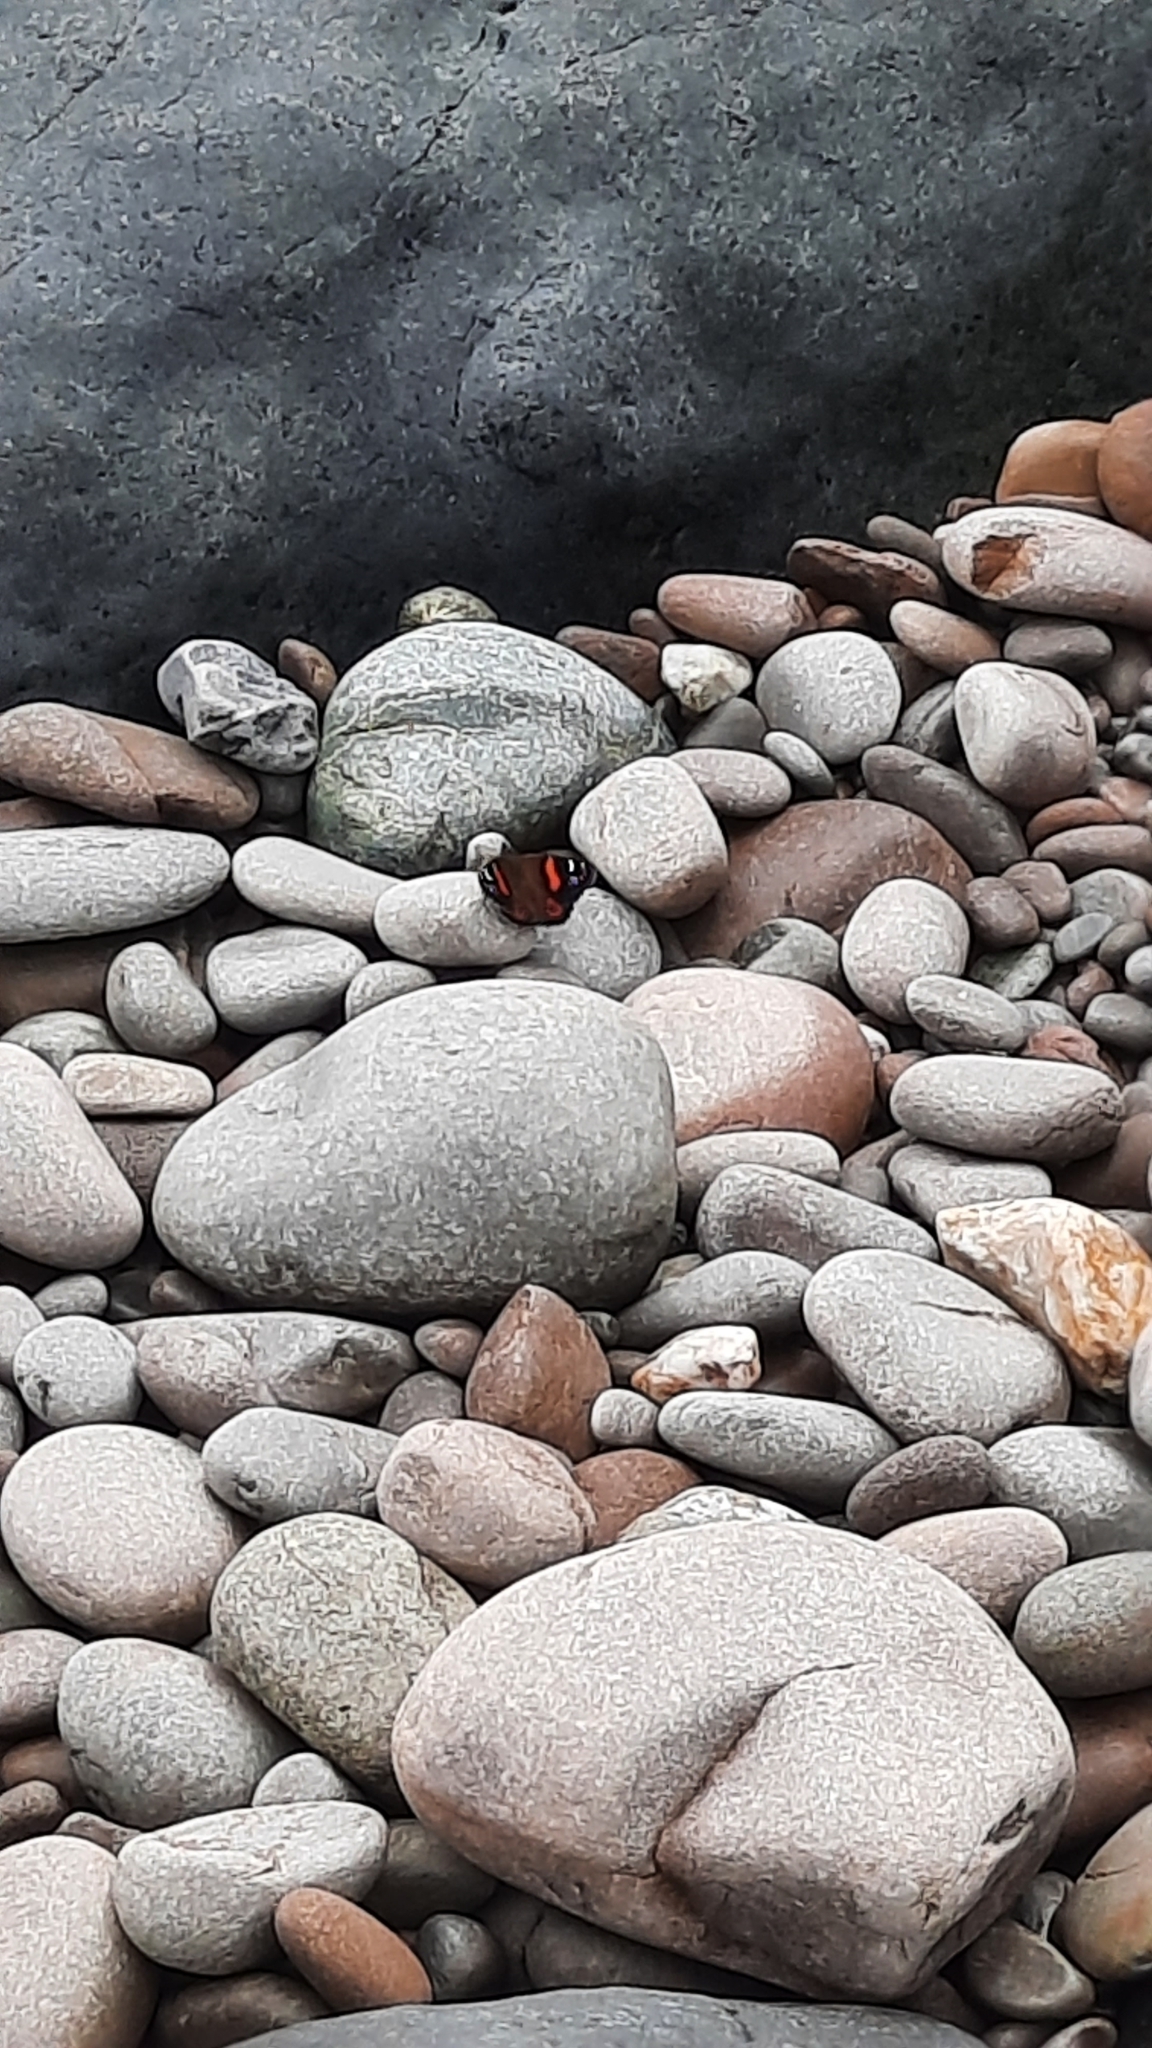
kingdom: Animalia
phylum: Arthropoda
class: Insecta
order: Lepidoptera
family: Nymphalidae
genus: Vanessa
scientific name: Vanessa gonerilla
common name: New zealand red admiral
